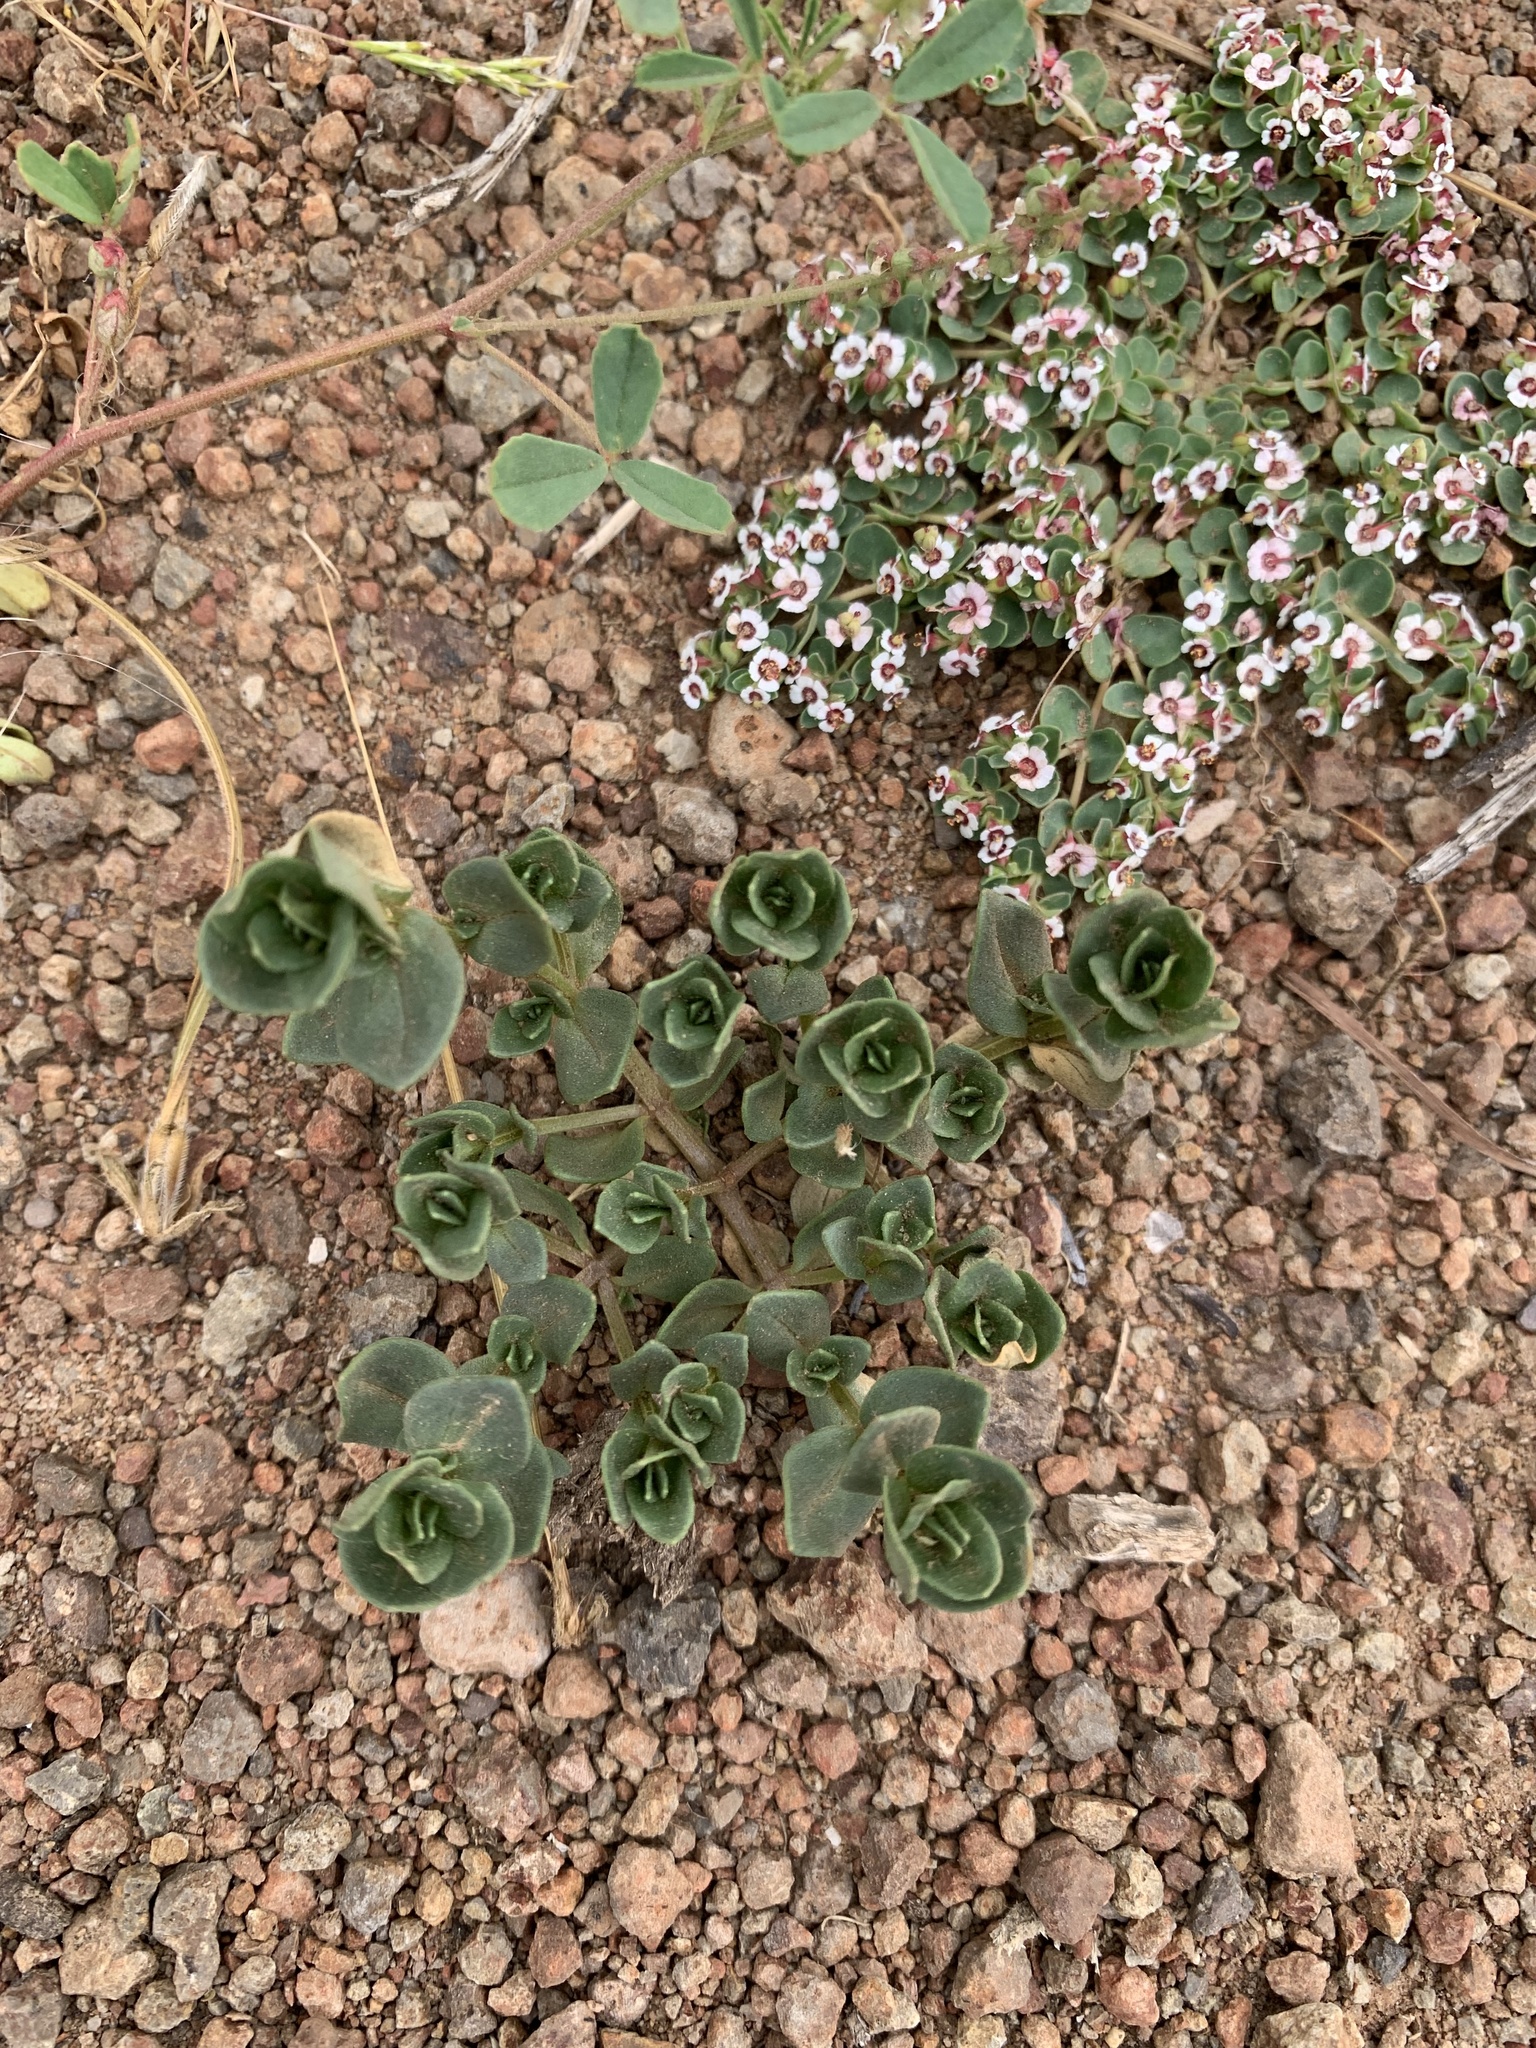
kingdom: Plantae
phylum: Tracheophyta
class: Magnoliopsida
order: Malpighiales
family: Euphorbiaceae
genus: Euphorbia
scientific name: Euphorbia polycarpa
